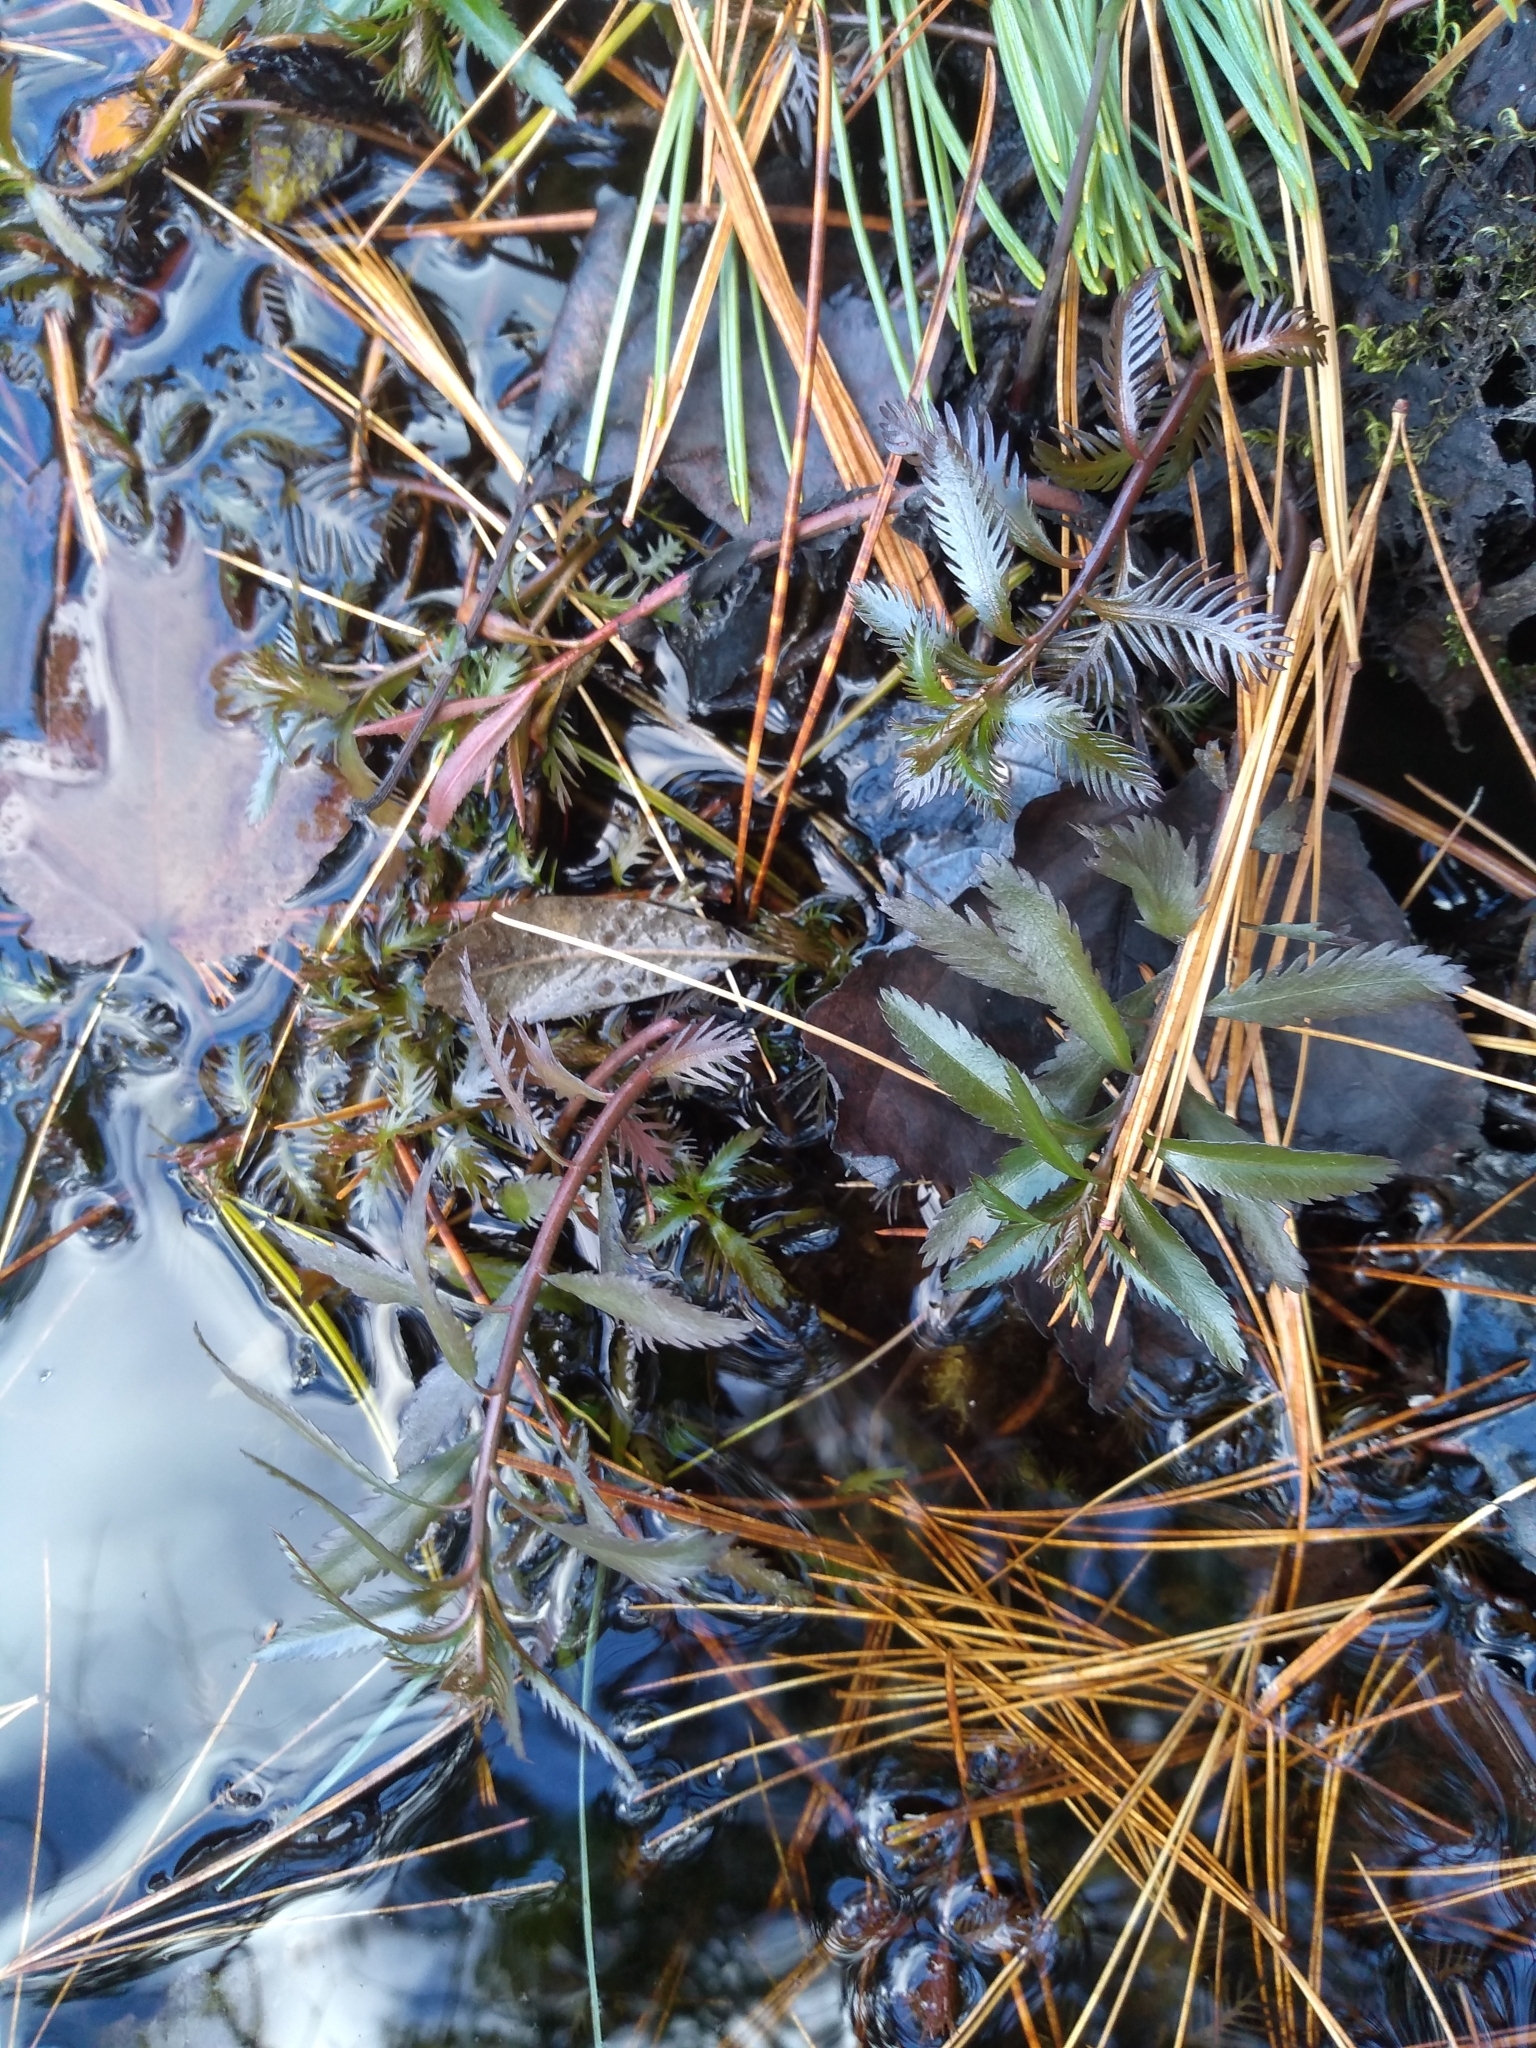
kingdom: Plantae
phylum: Tracheophyta
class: Magnoliopsida
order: Saxifragales
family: Haloragaceae
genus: Proserpinaca
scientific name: Proserpinaca palustris
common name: Marsh mermaidweed
